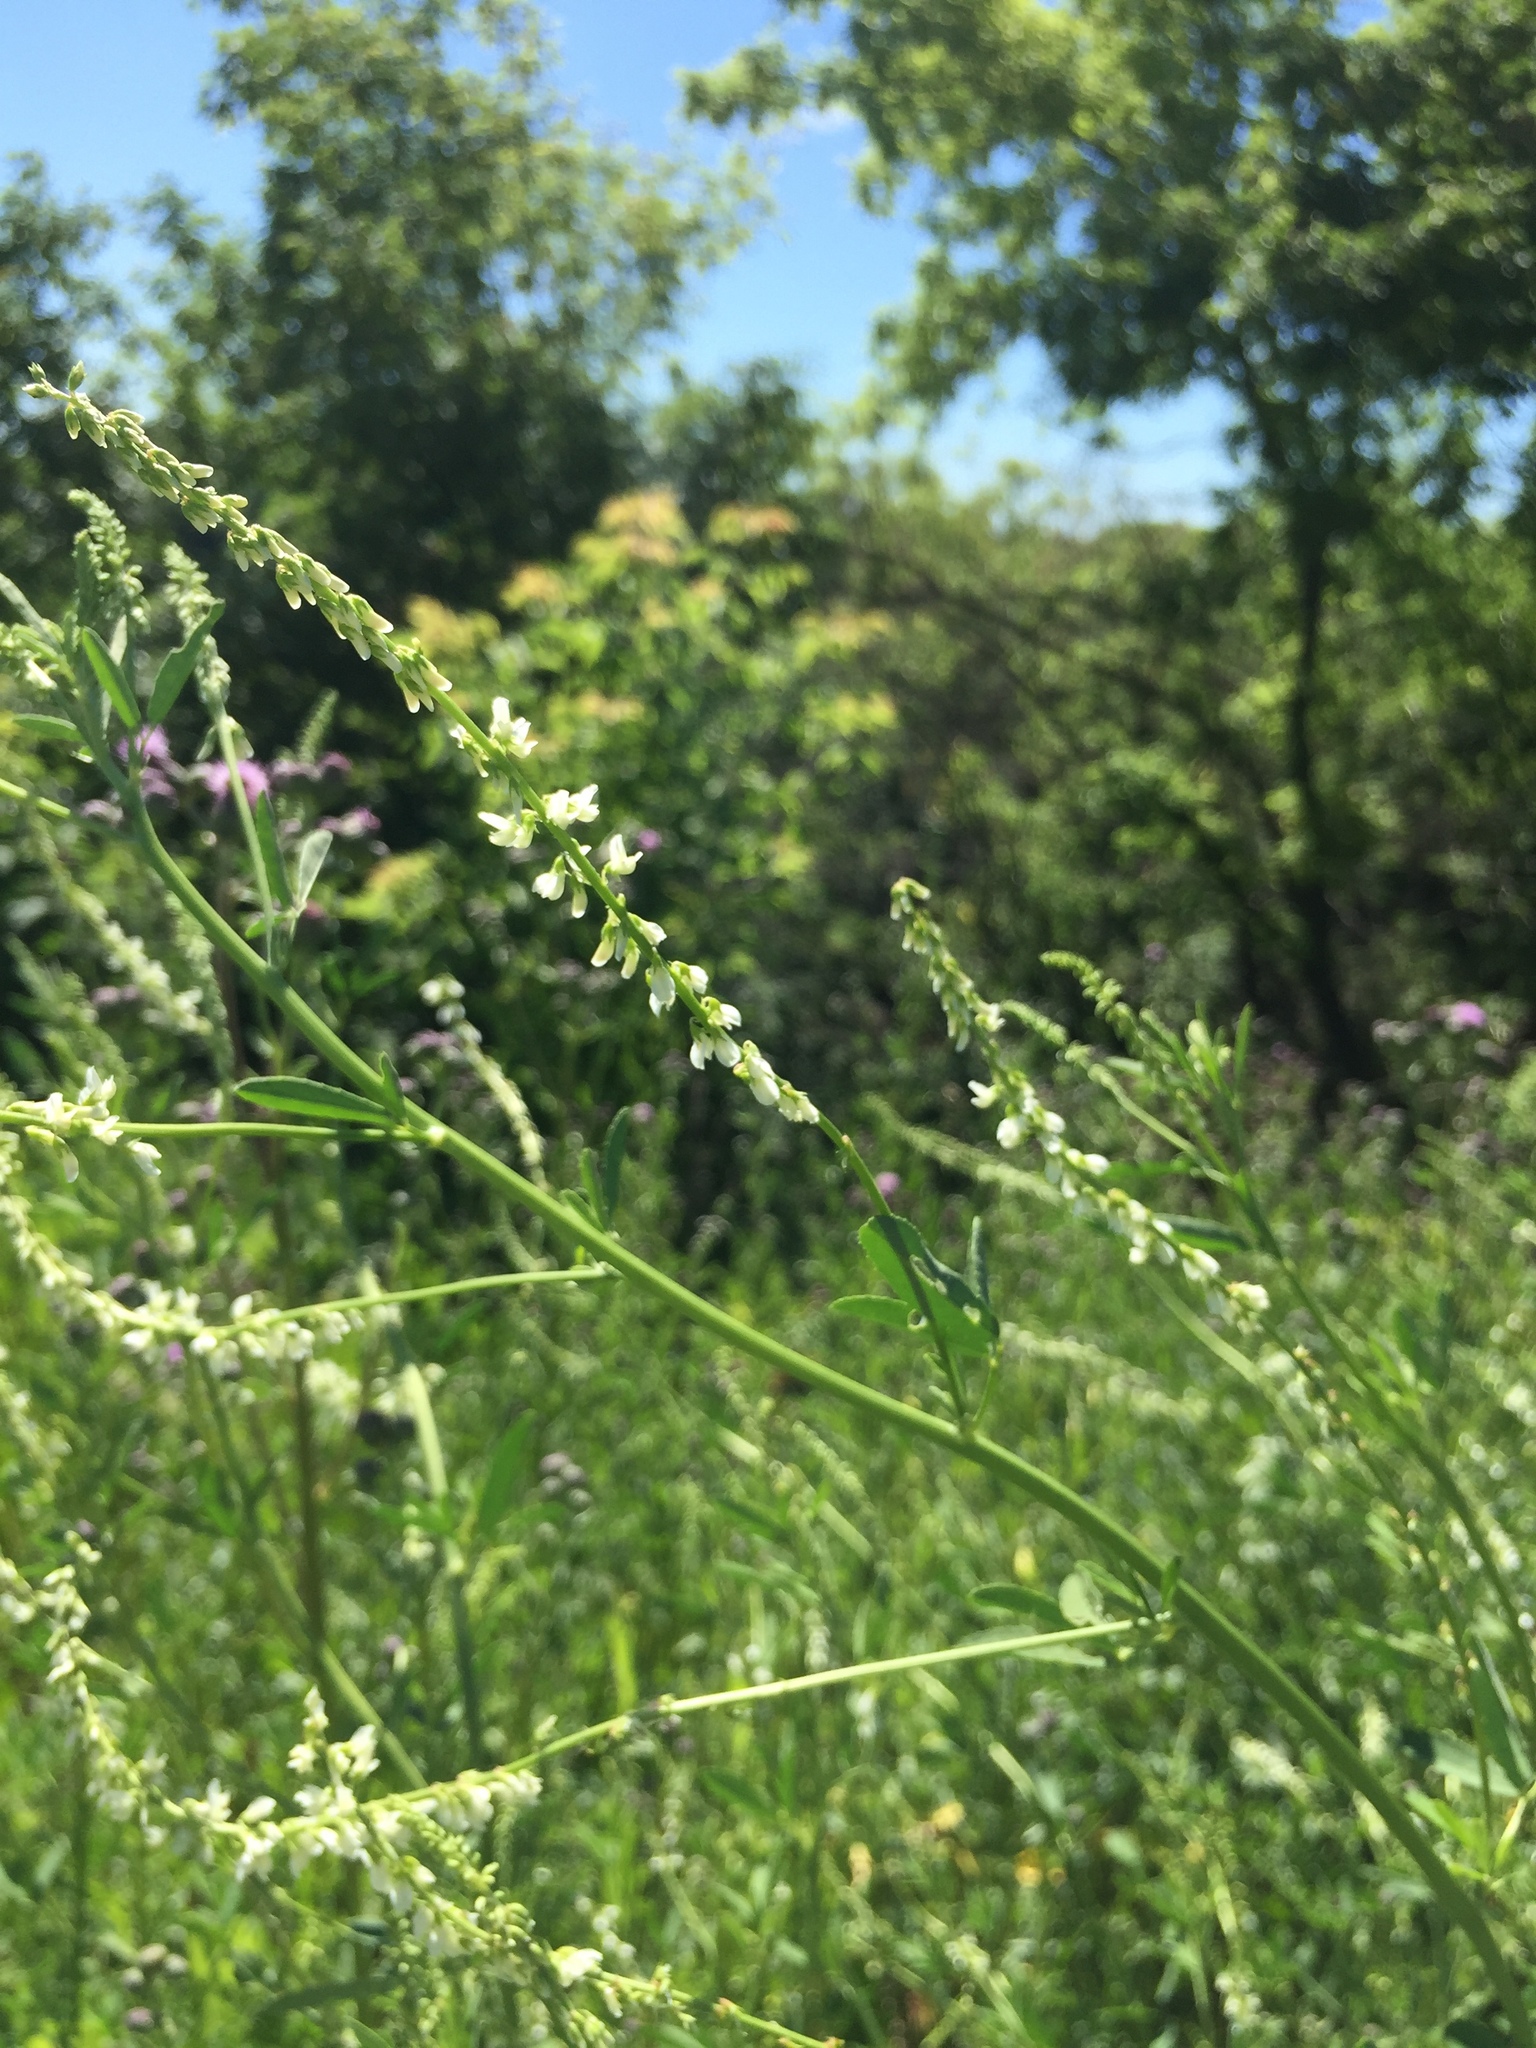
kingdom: Plantae
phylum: Tracheophyta
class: Magnoliopsida
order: Fabales
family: Fabaceae
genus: Melilotus
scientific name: Melilotus albus
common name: White melilot
